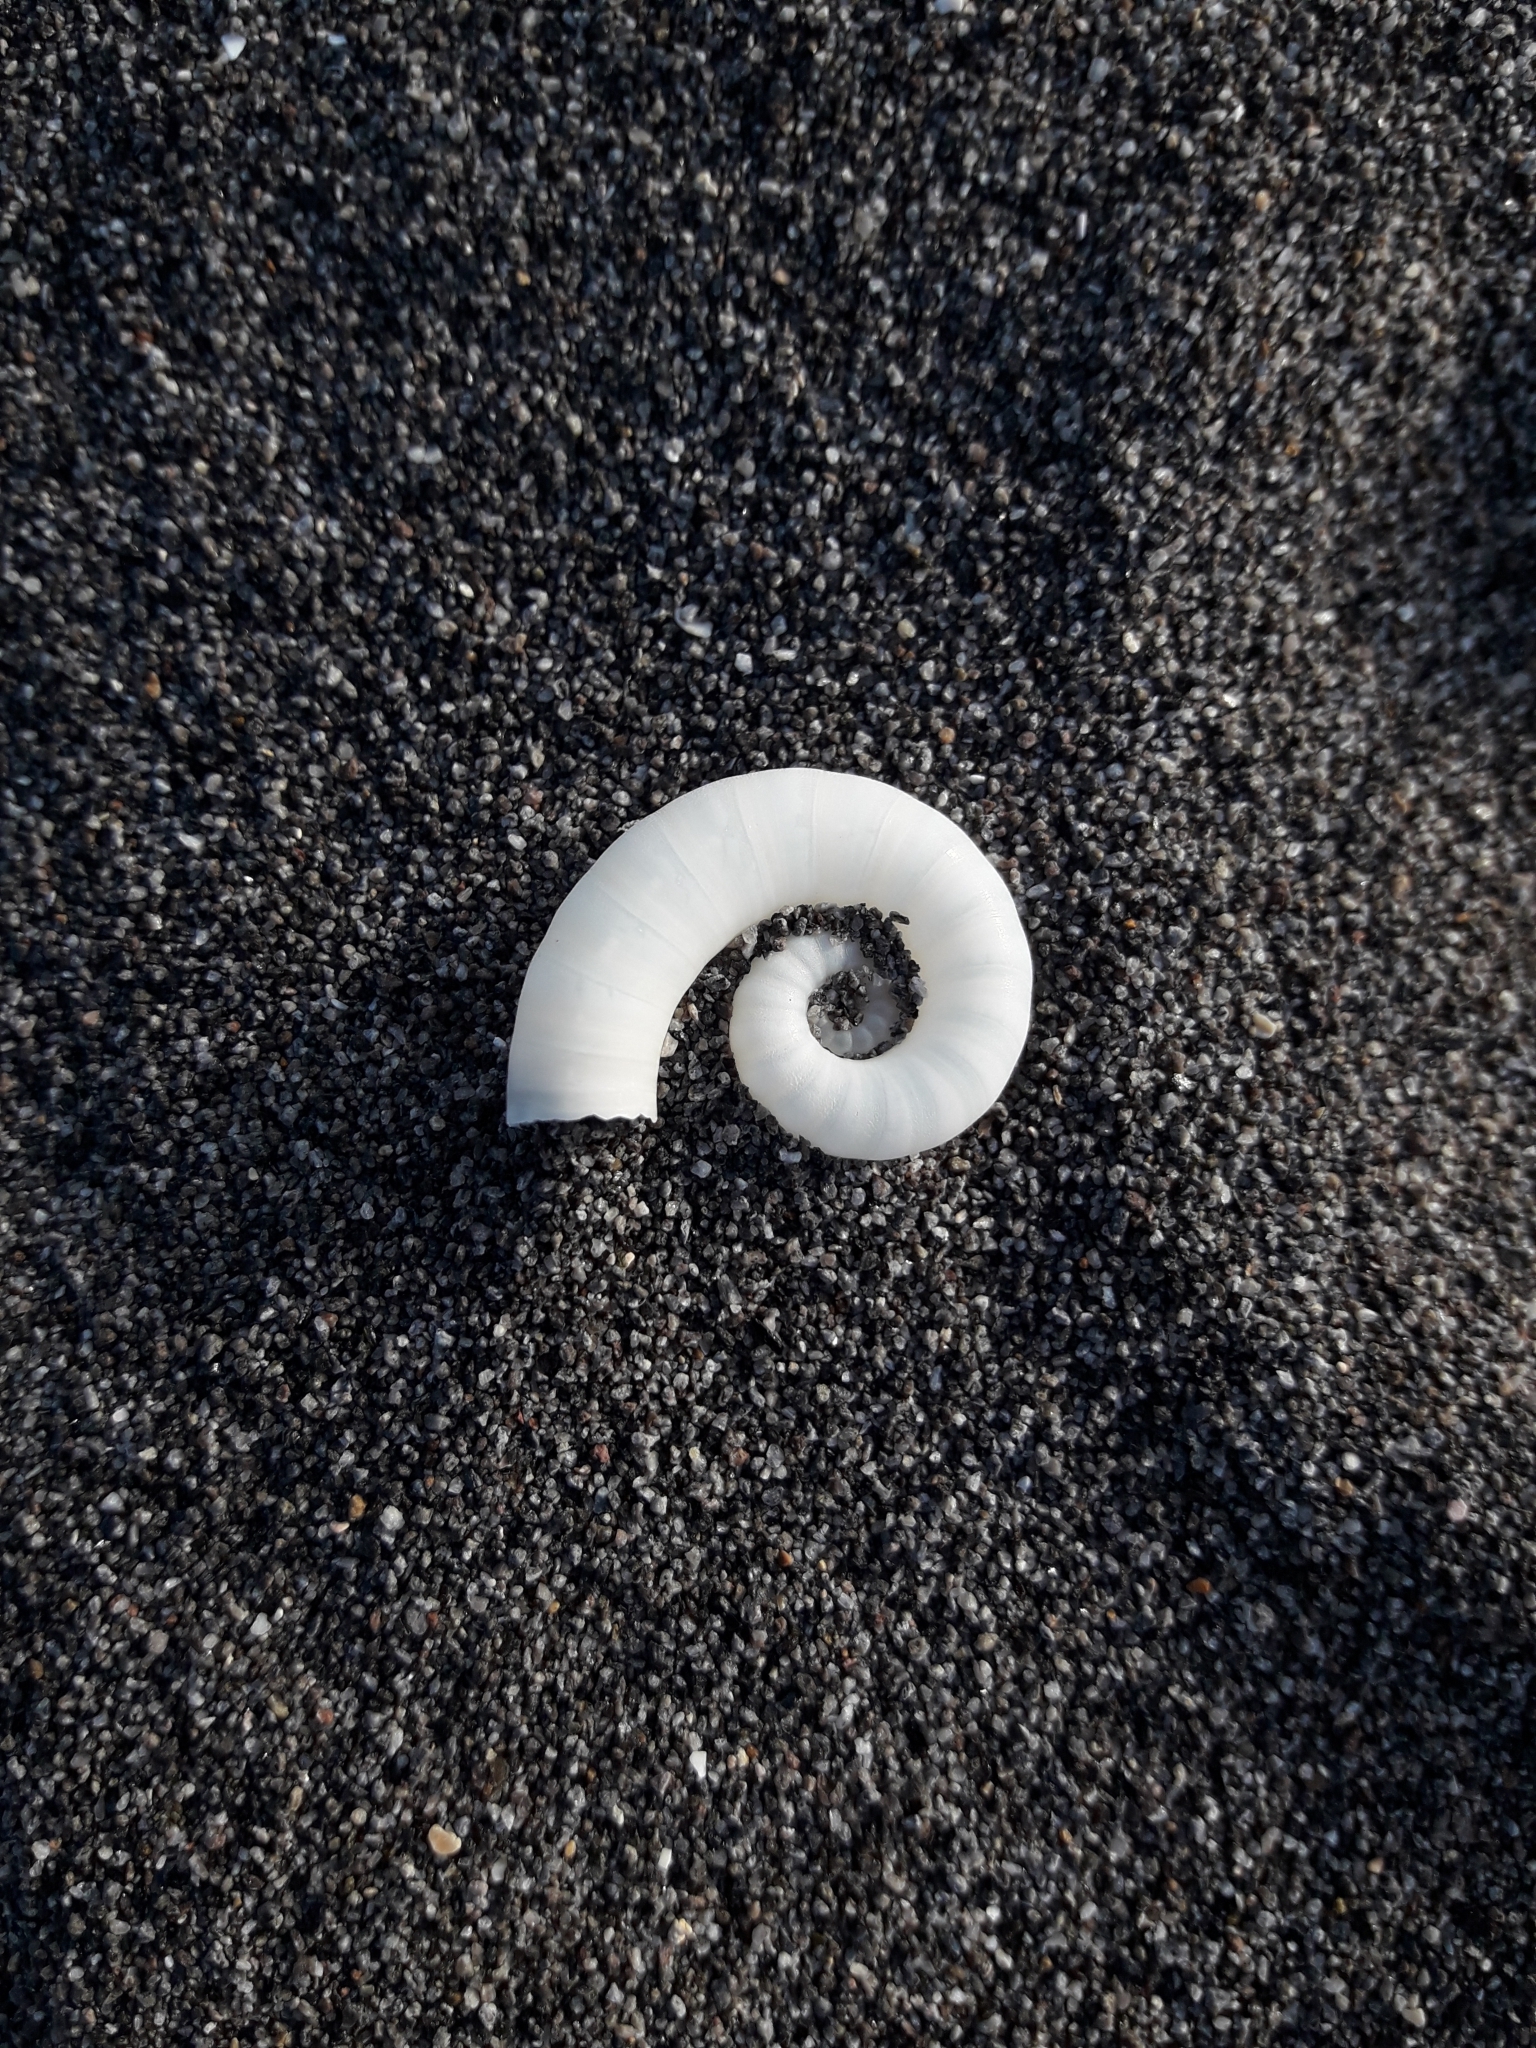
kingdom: Animalia
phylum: Mollusca
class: Cephalopoda
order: Spirulida
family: Spirulidae
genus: Spirula
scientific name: Spirula spirula
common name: Ram's horn squid
